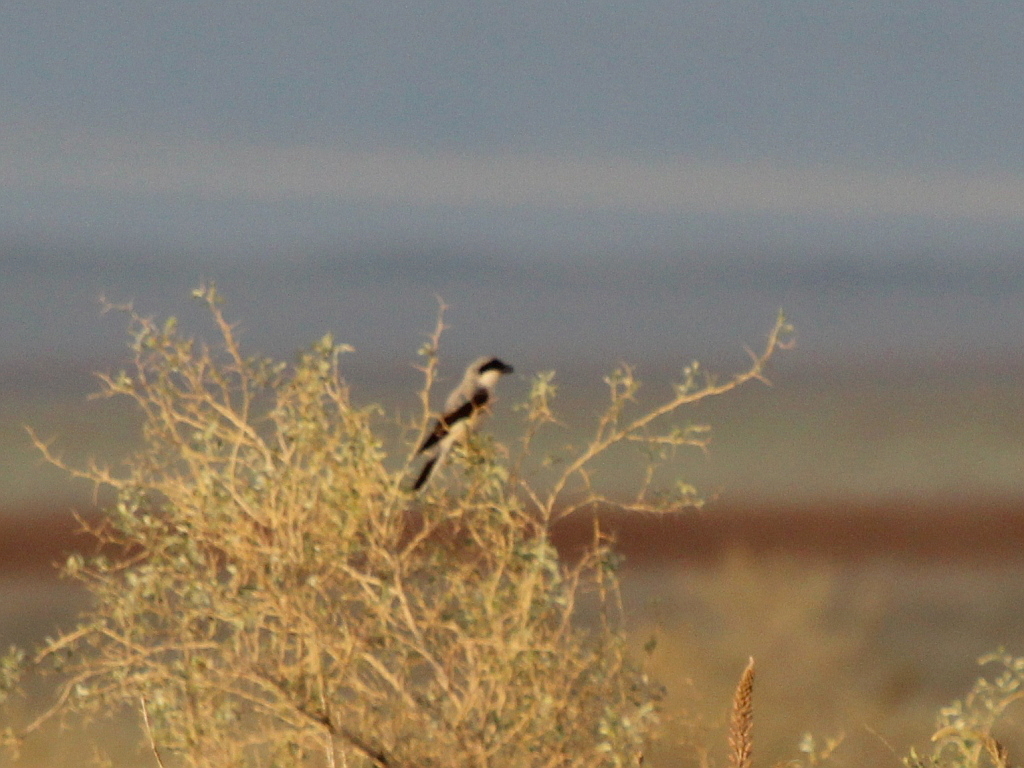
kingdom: Animalia
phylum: Chordata
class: Aves
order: Passeriformes
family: Laniidae
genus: Lanius
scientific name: Lanius minor
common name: Lesser grey shrike
